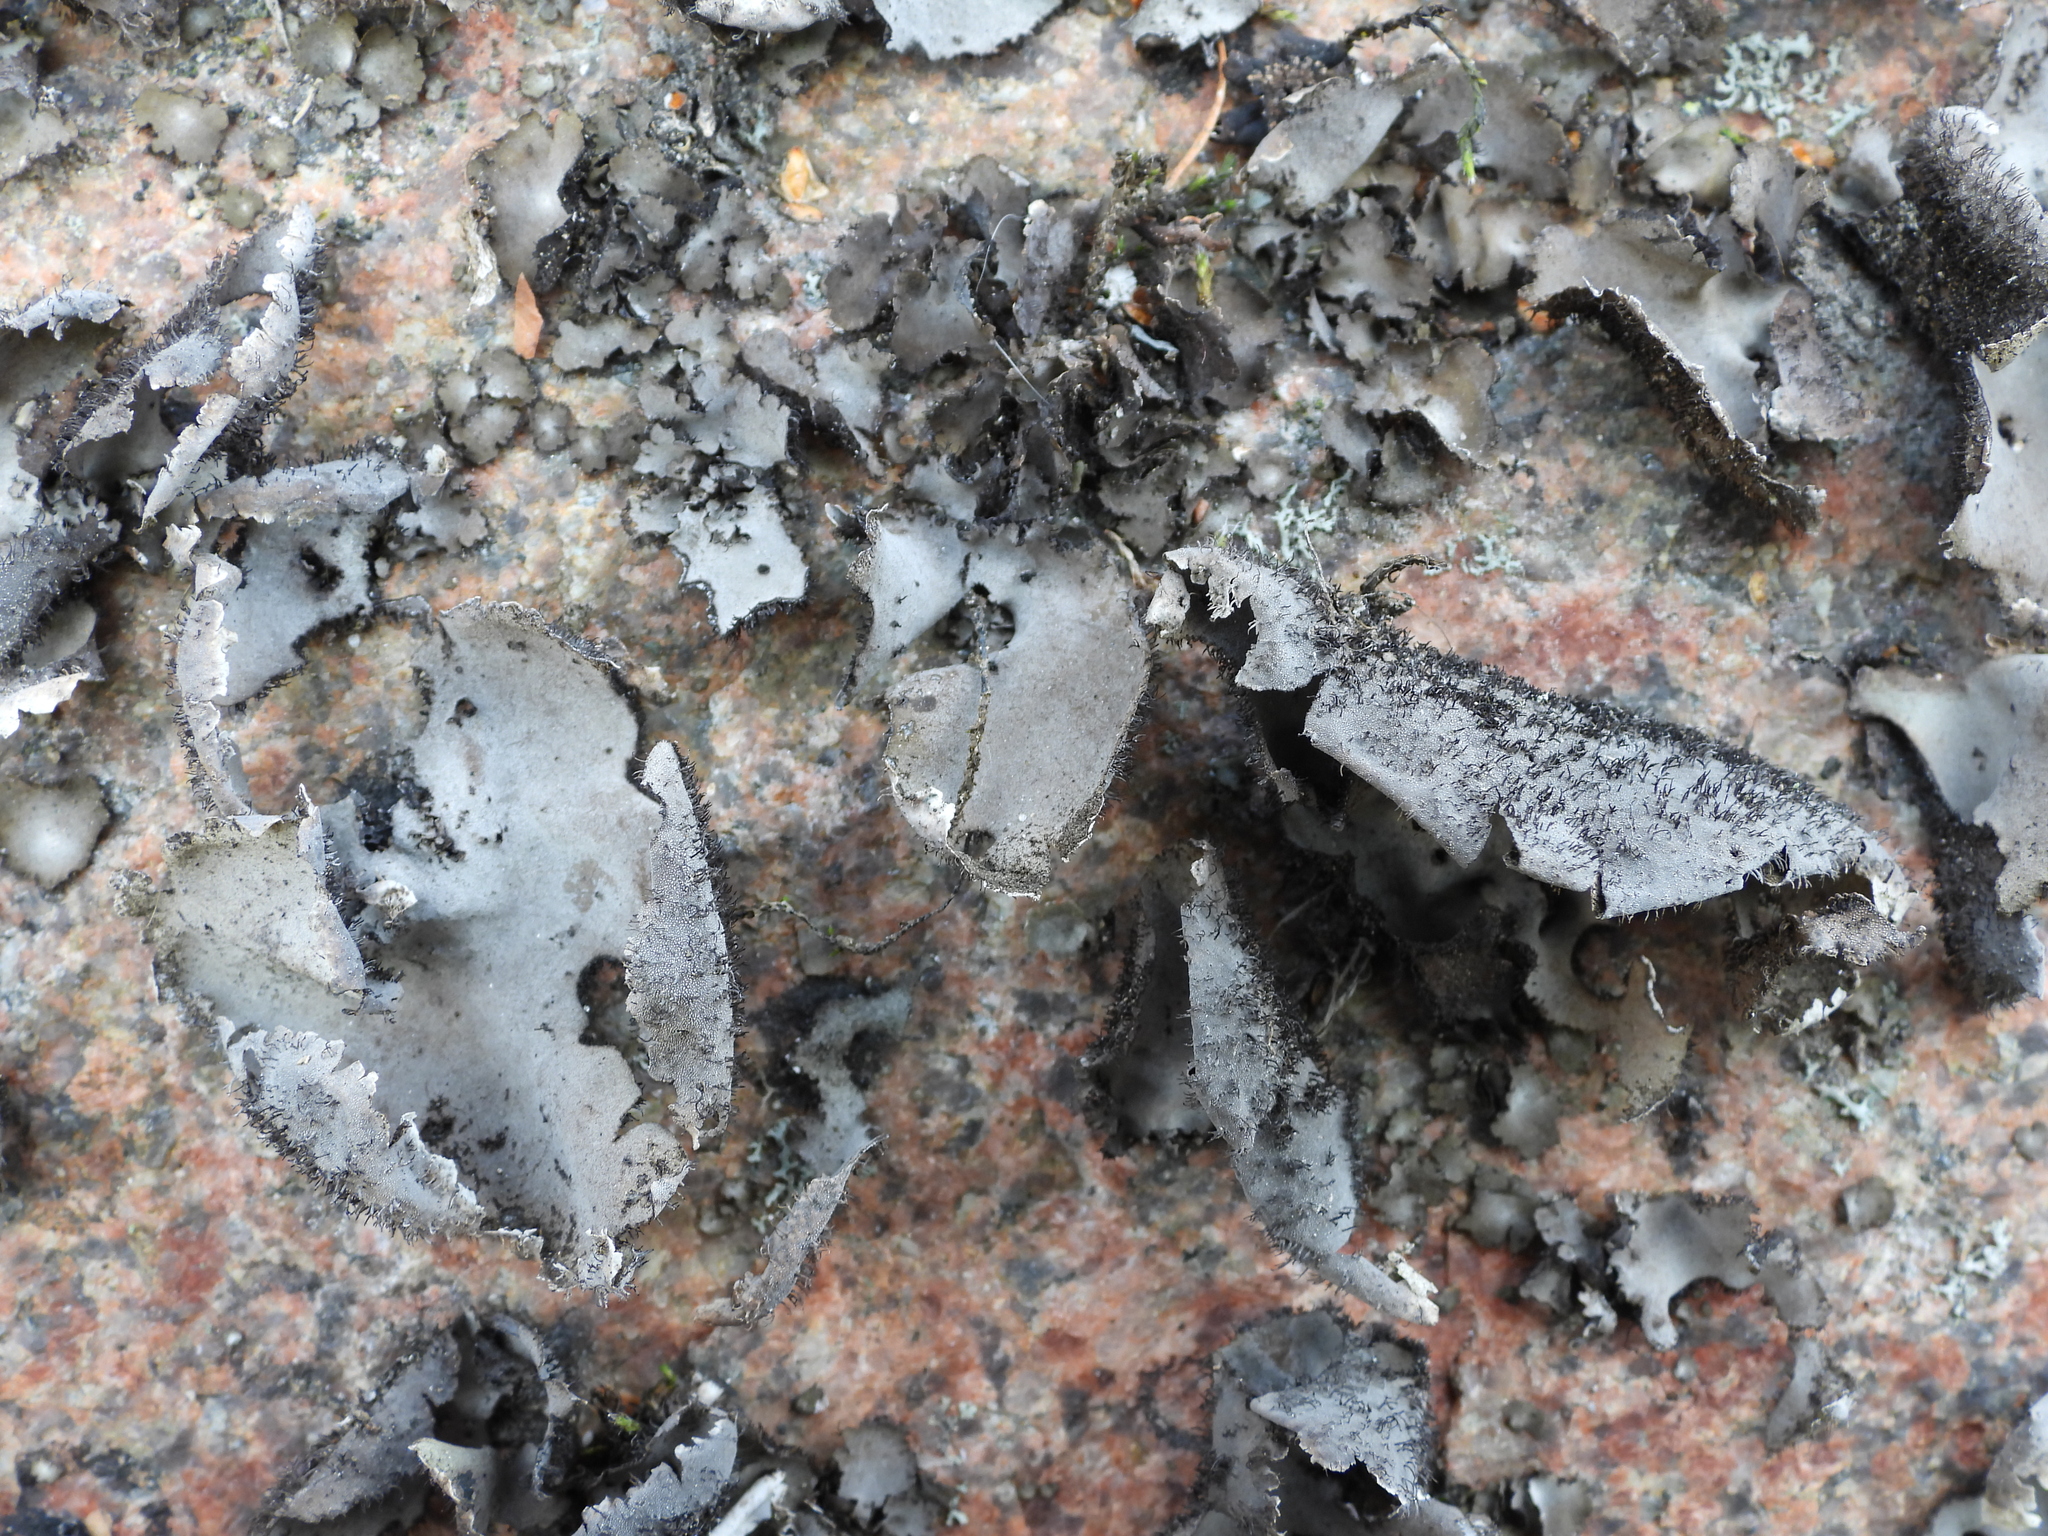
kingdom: Fungi
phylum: Ascomycota
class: Lecanoromycetes
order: Umbilicariales
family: Umbilicariaceae
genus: Umbilicaria
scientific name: Umbilicaria hirsuta
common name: Granulating rocktripe lichen
